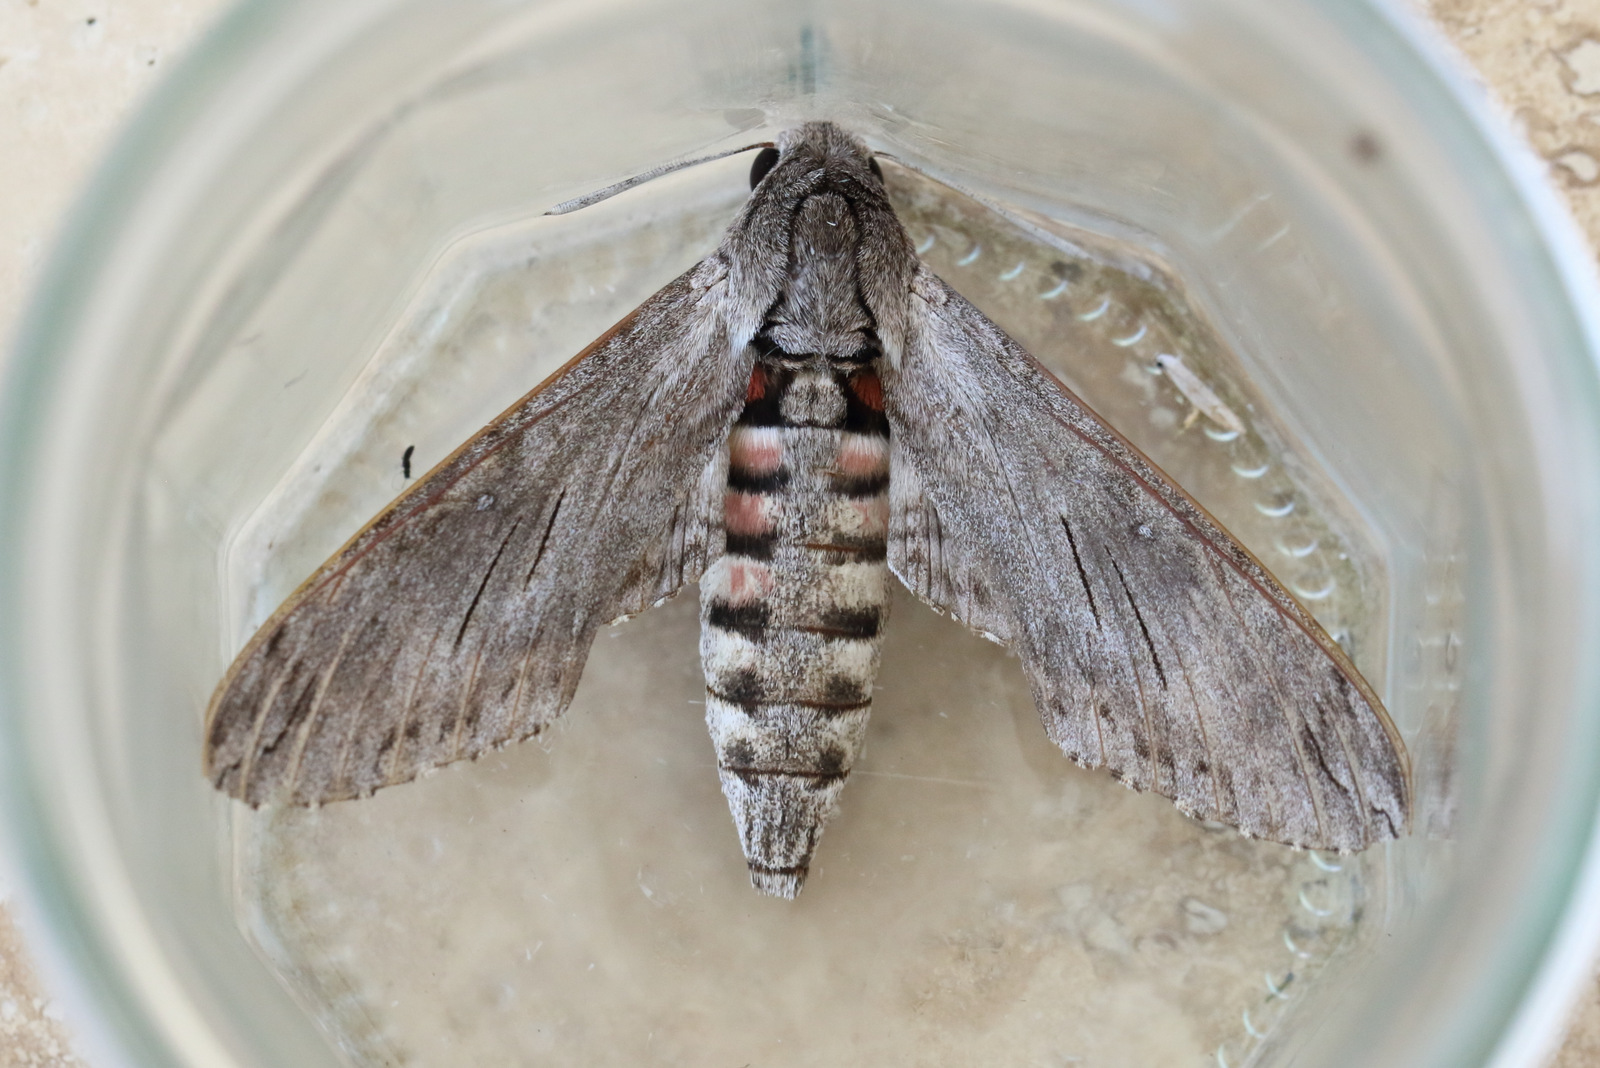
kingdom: Animalia
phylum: Arthropoda
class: Insecta
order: Lepidoptera
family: Sphingidae
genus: Agrius
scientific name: Agrius convolvuli
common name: Convolvulus hawkmoth
